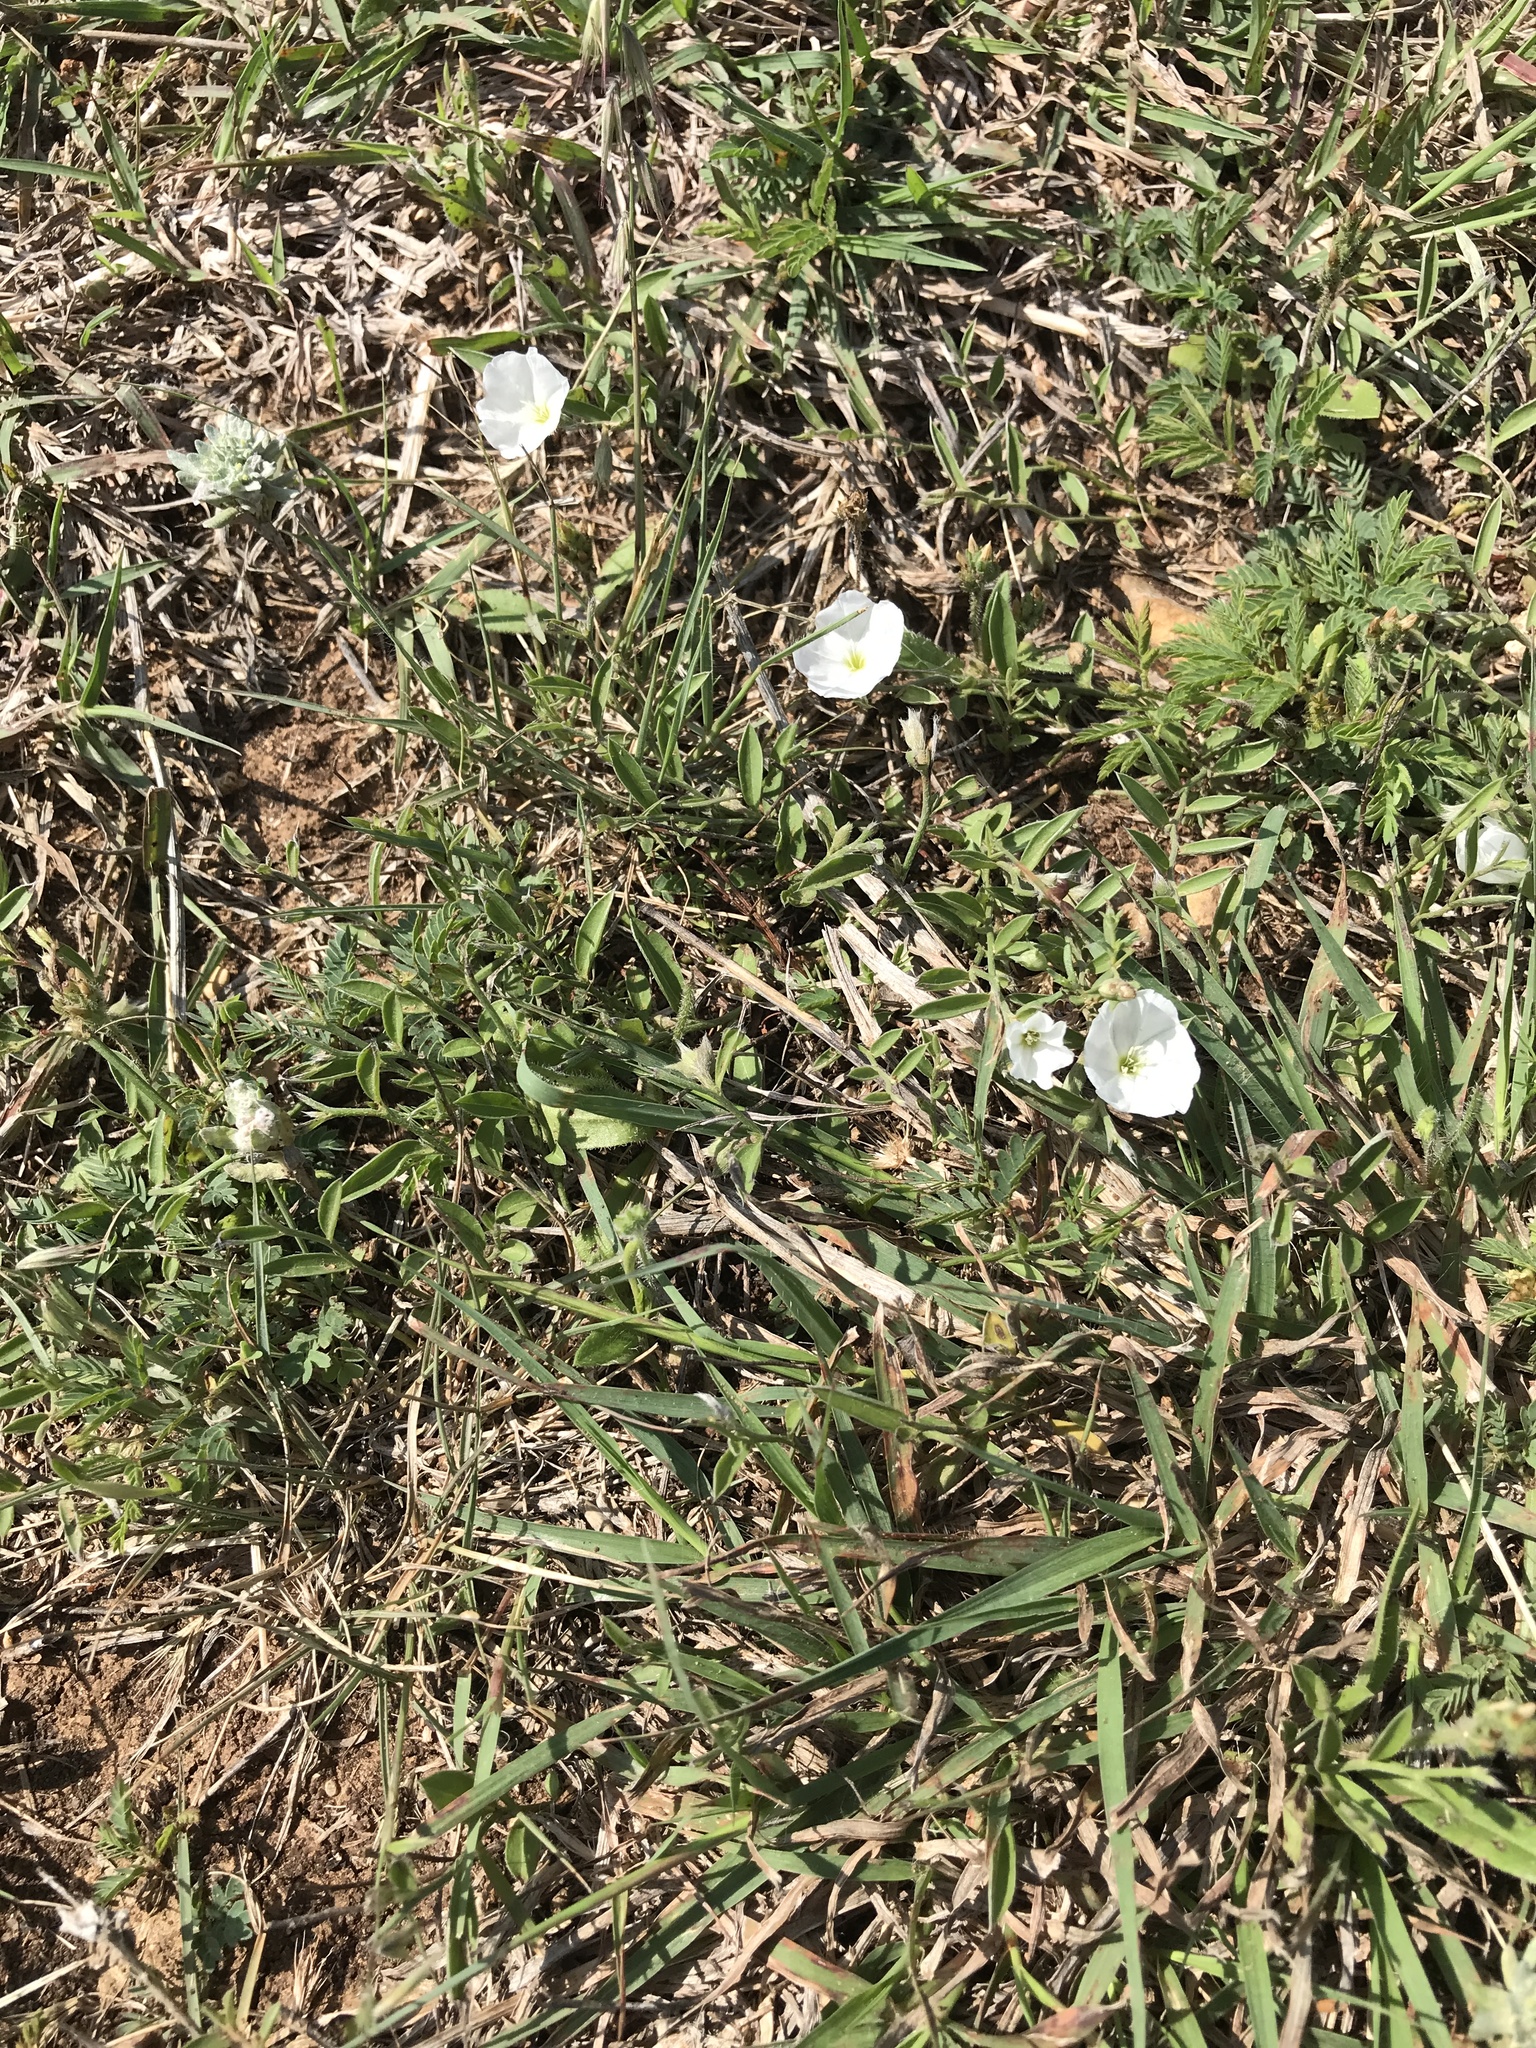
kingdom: Plantae
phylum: Tracheophyta
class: Magnoliopsida
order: Solanales
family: Convolvulaceae
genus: Evolvulus
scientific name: Evolvulus sericeus
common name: Blue dots
